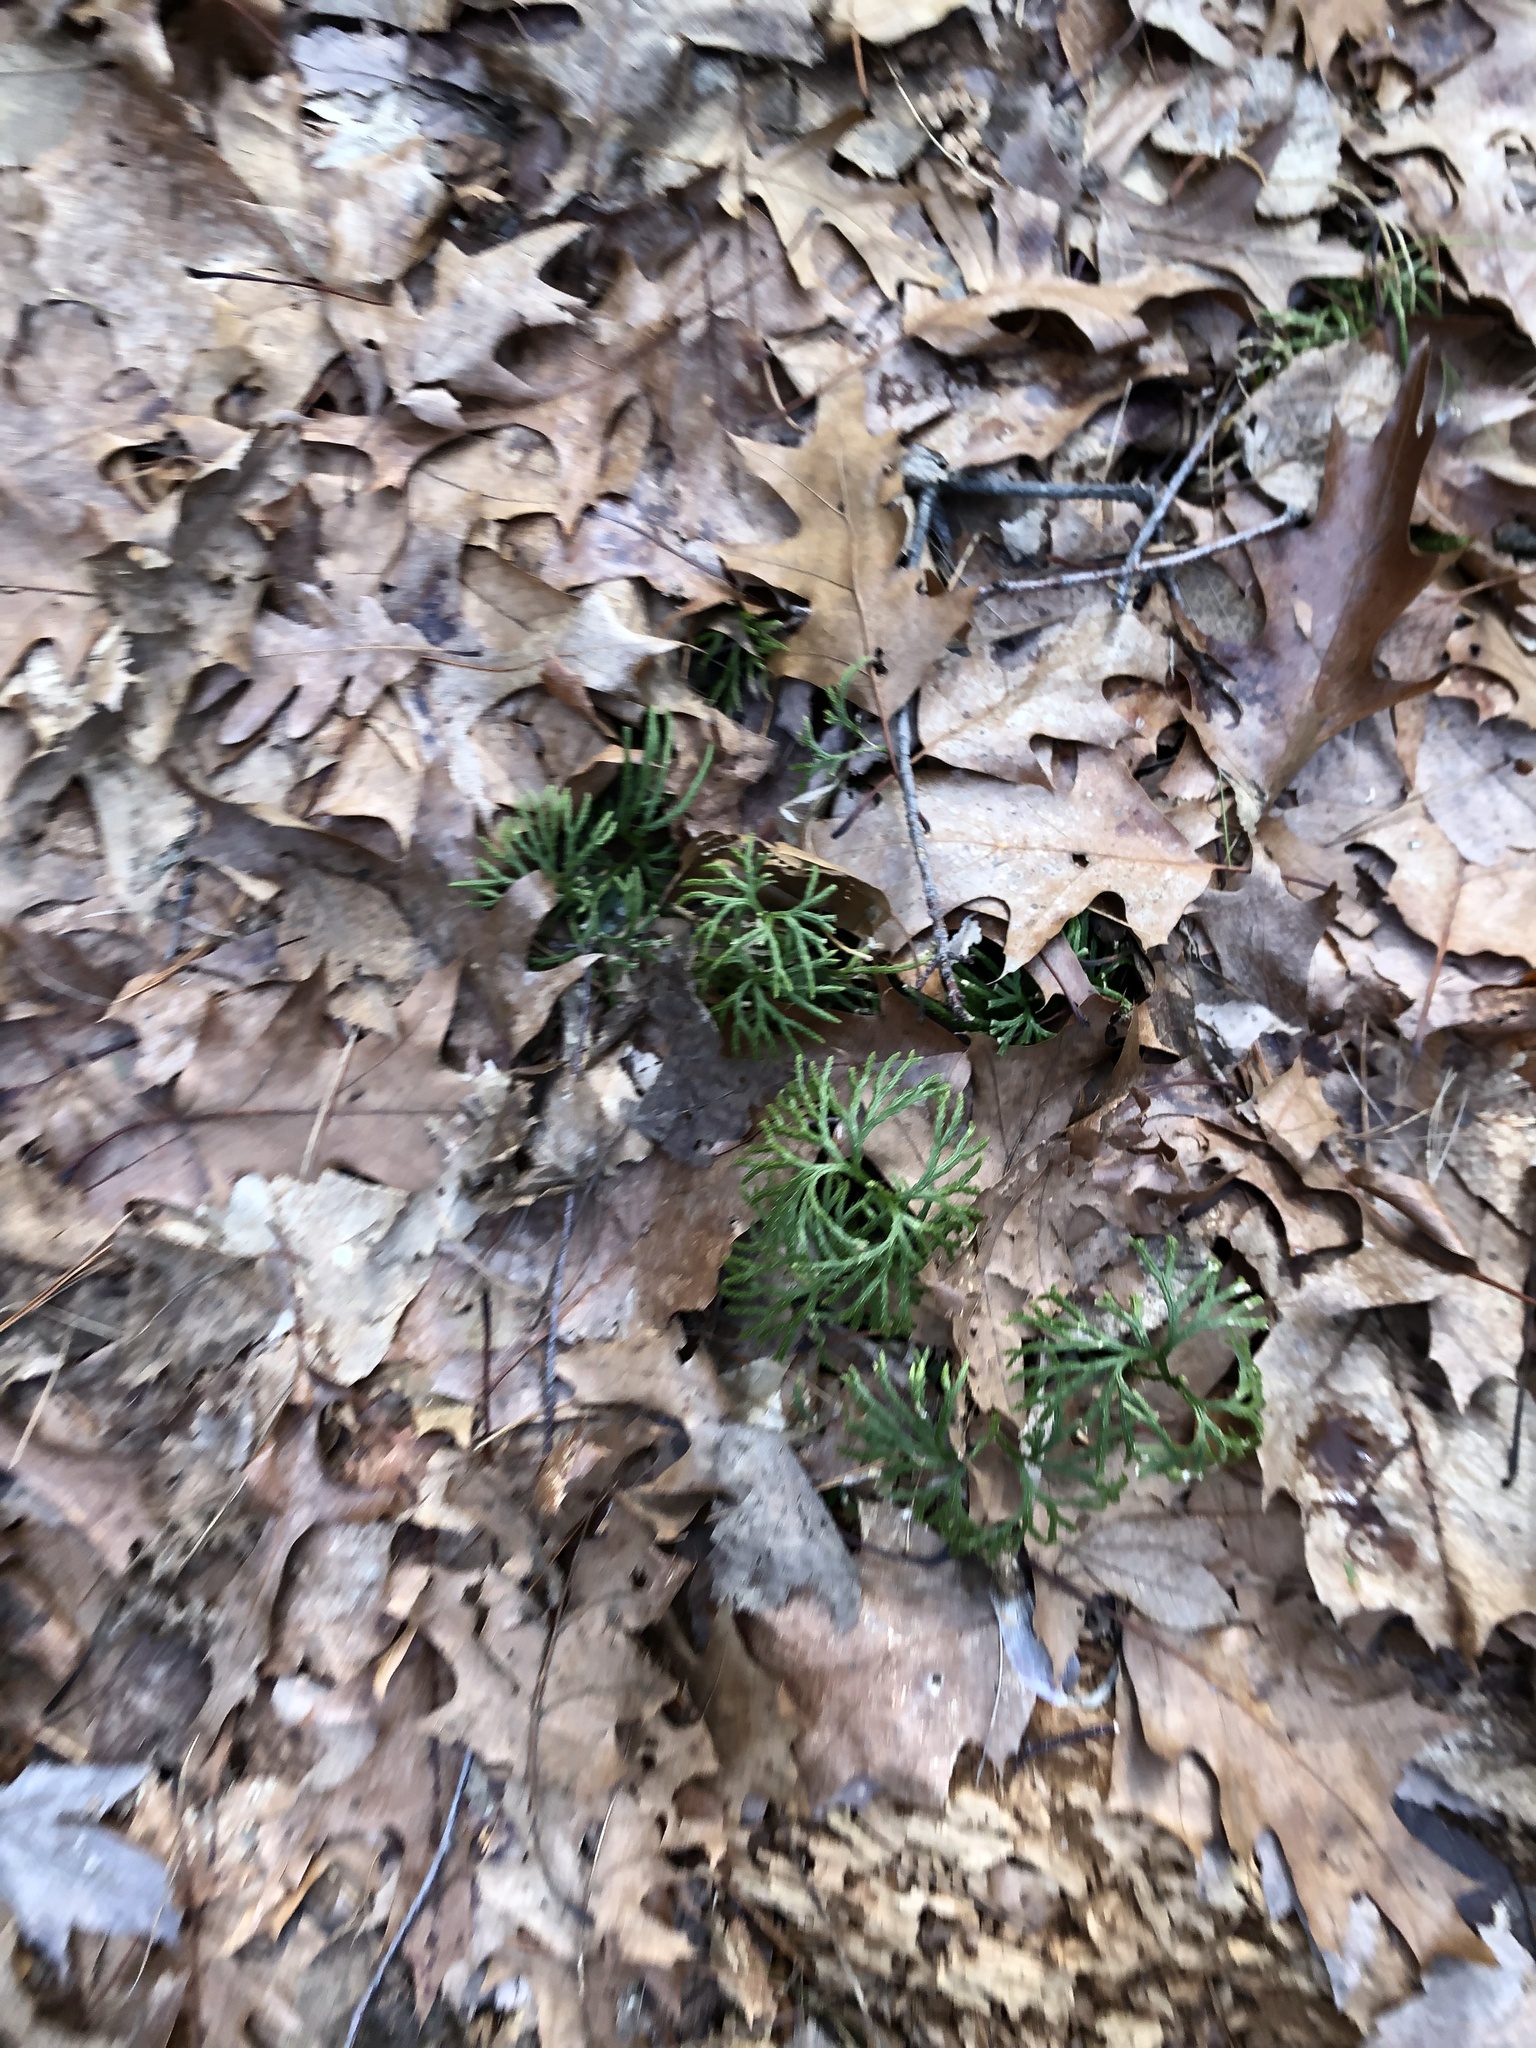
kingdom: Plantae
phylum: Tracheophyta
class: Lycopodiopsida
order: Lycopodiales
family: Lycopodiaceae
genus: Diphasiastrum
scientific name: Diphasiastrum digitatum
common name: Southern running-pine
